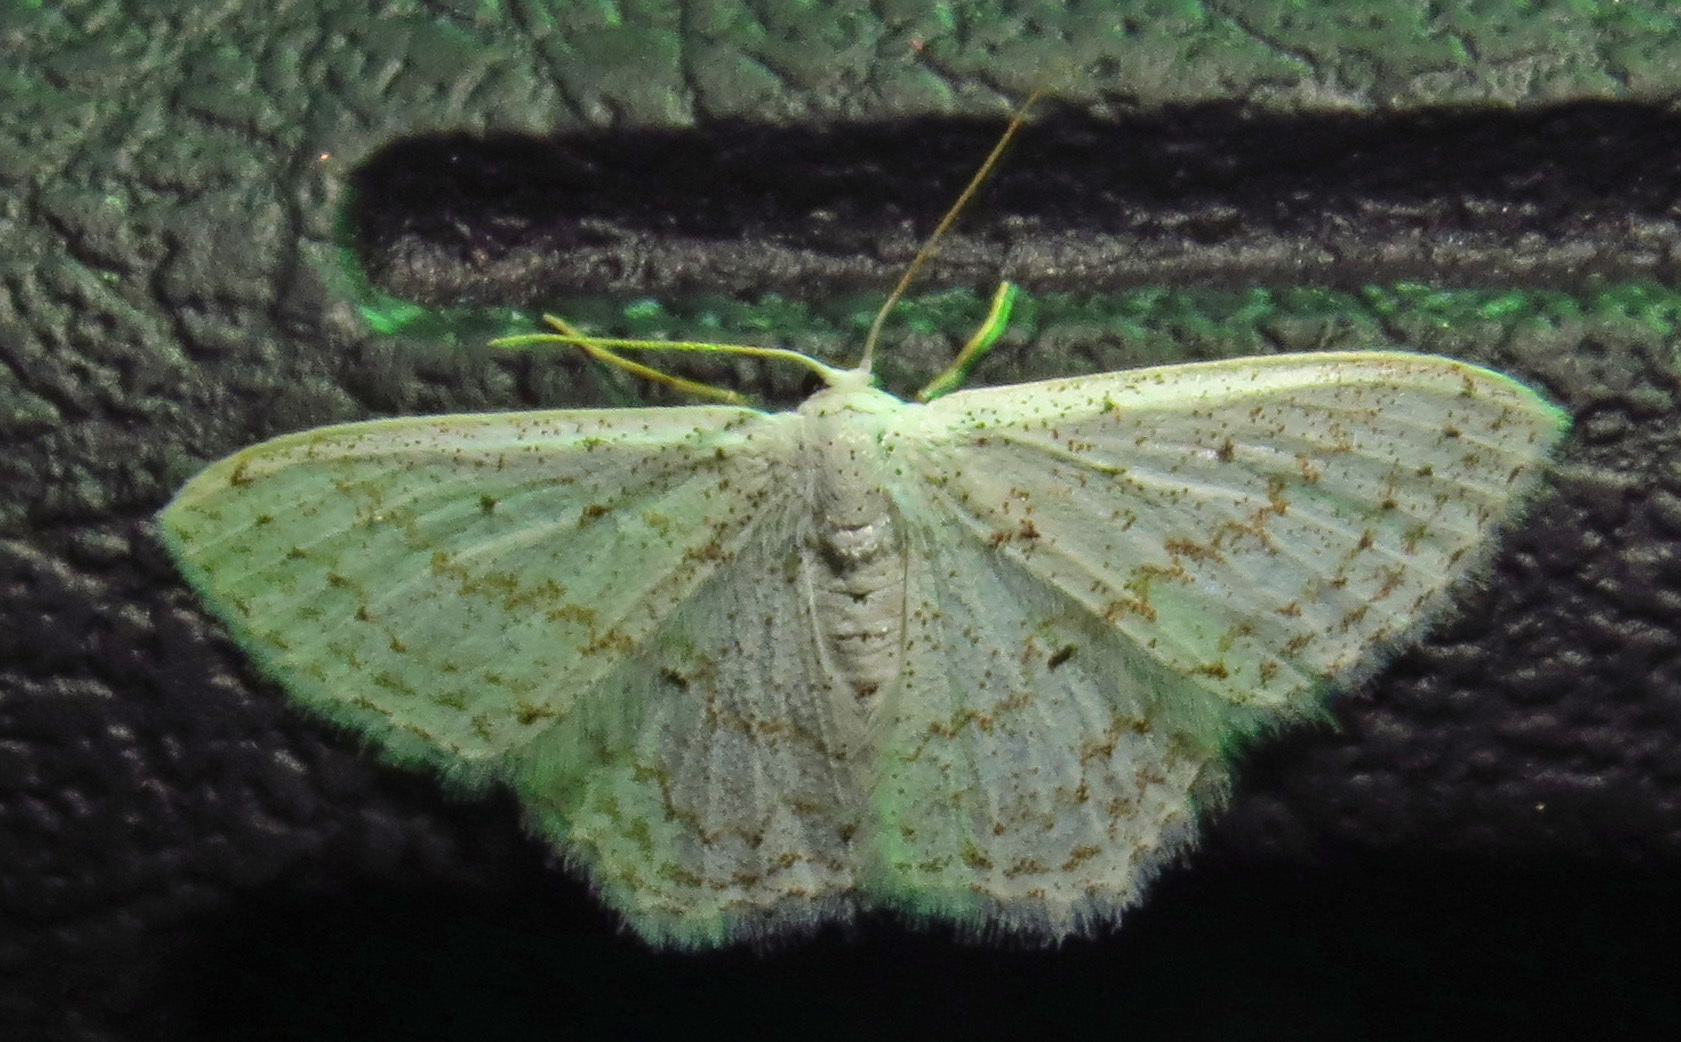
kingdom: Animalia
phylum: Arthropoda
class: Insecta
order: Lepidoptera
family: Geometridae
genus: Idaea
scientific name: Idaea tacturata
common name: Dot-lined wave
